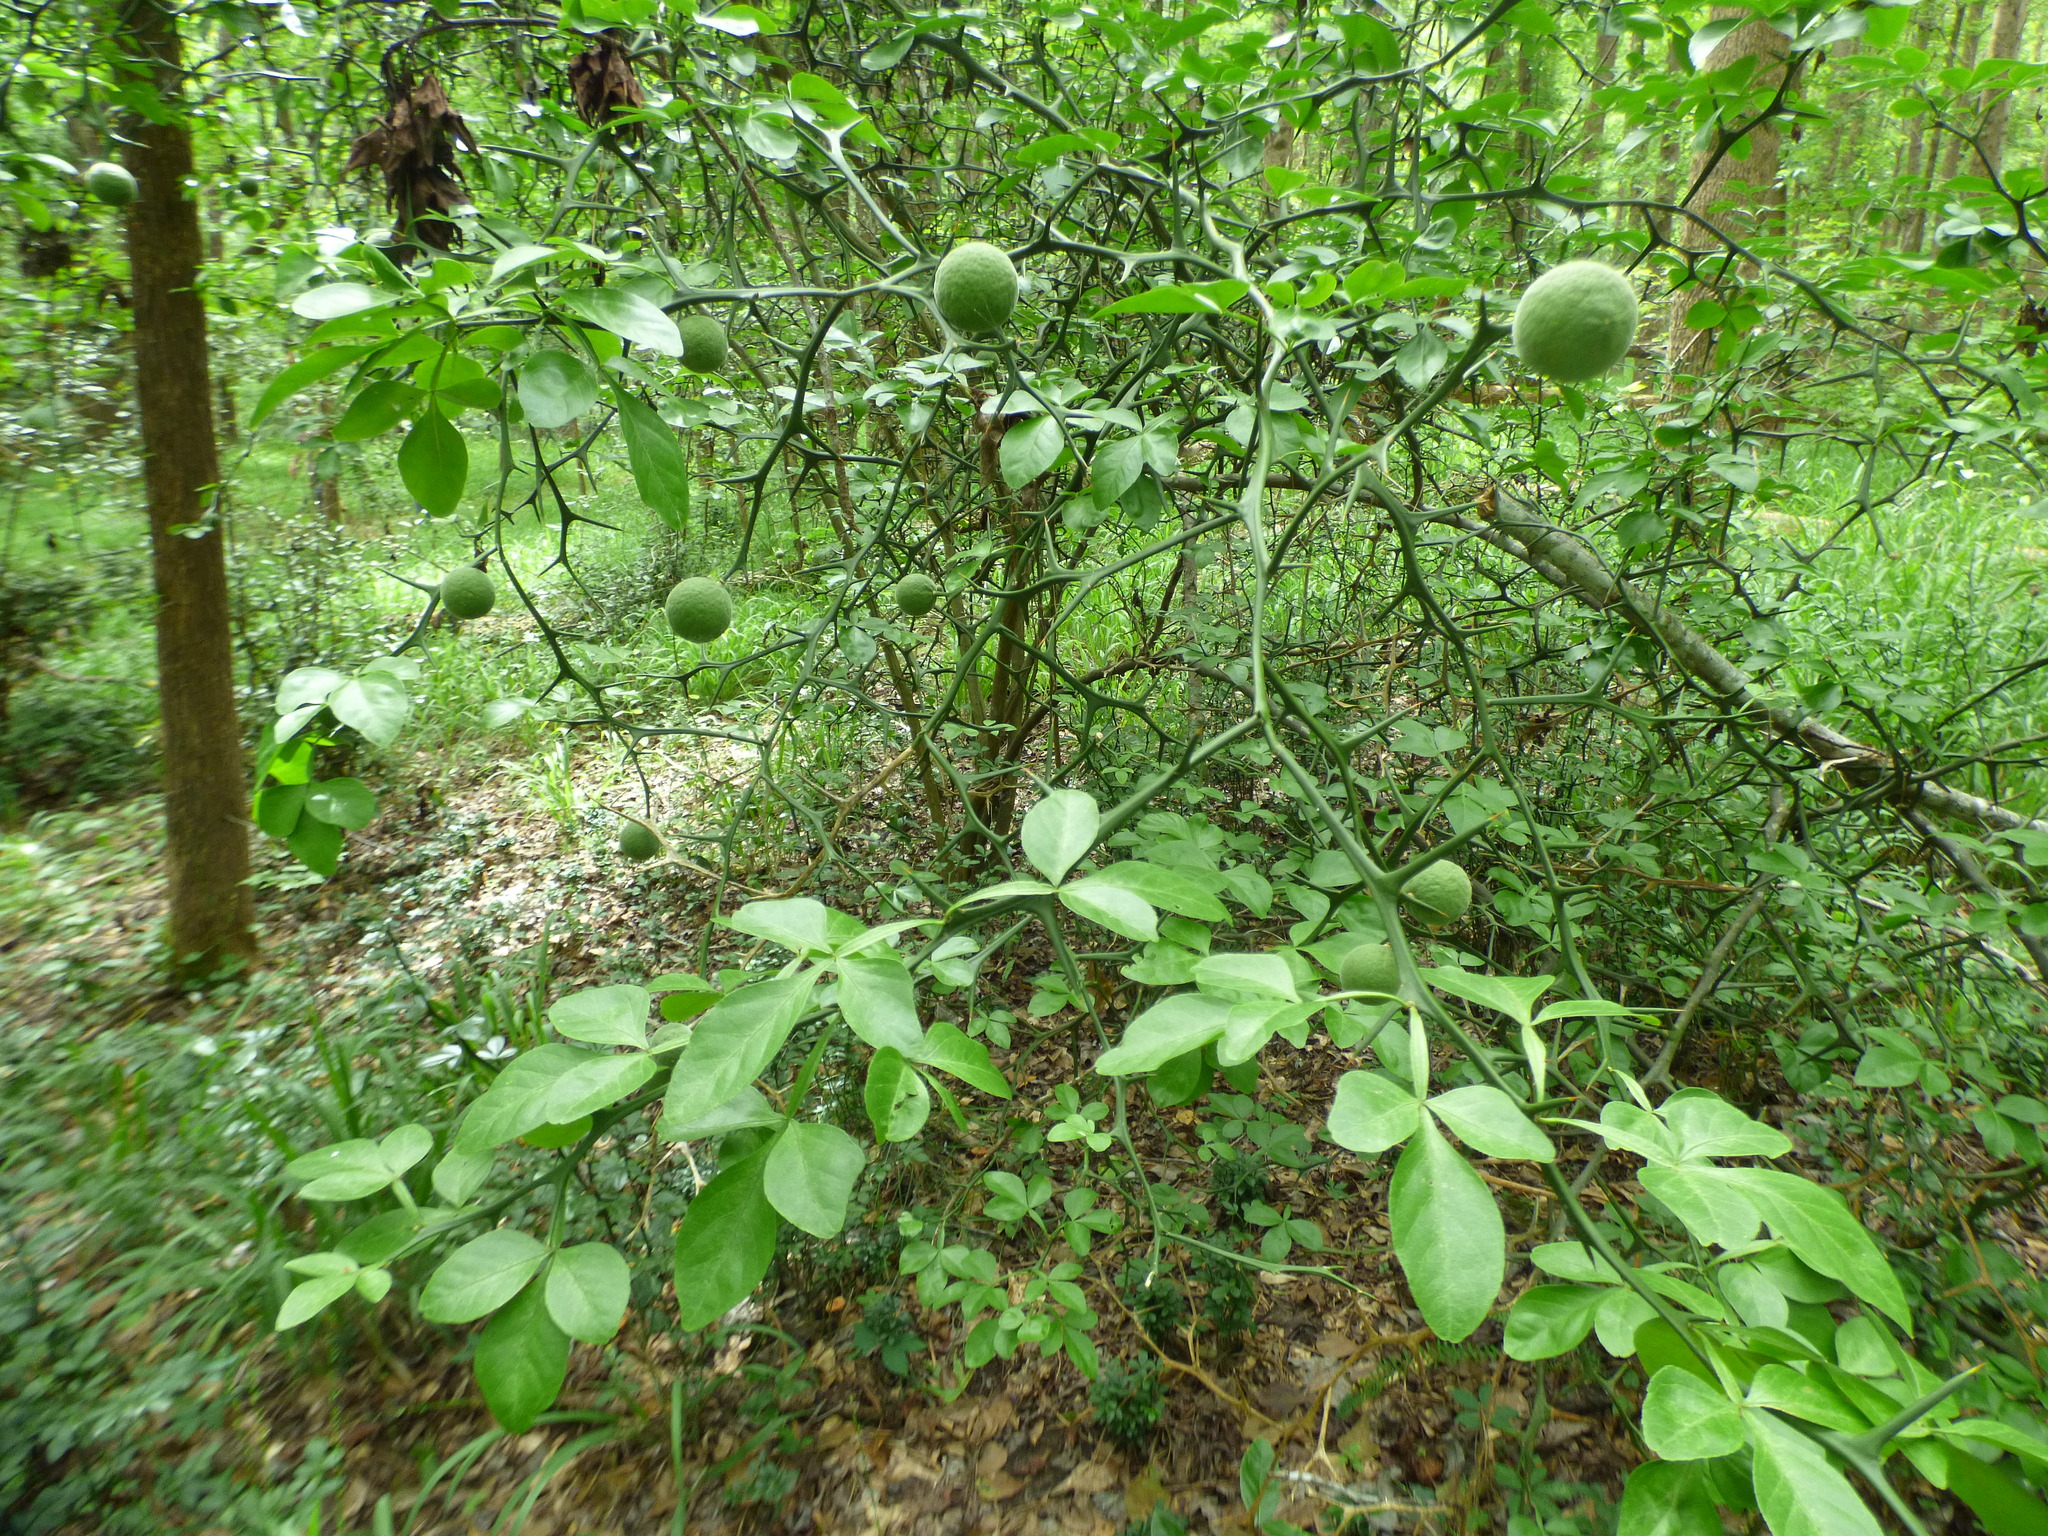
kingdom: Plantae
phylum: Tracheophyta
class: Magnoliopsida
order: Sapindales
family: Rutaceae
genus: Citrus
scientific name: Citrus trifoliata
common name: Japanese bitter-orange
